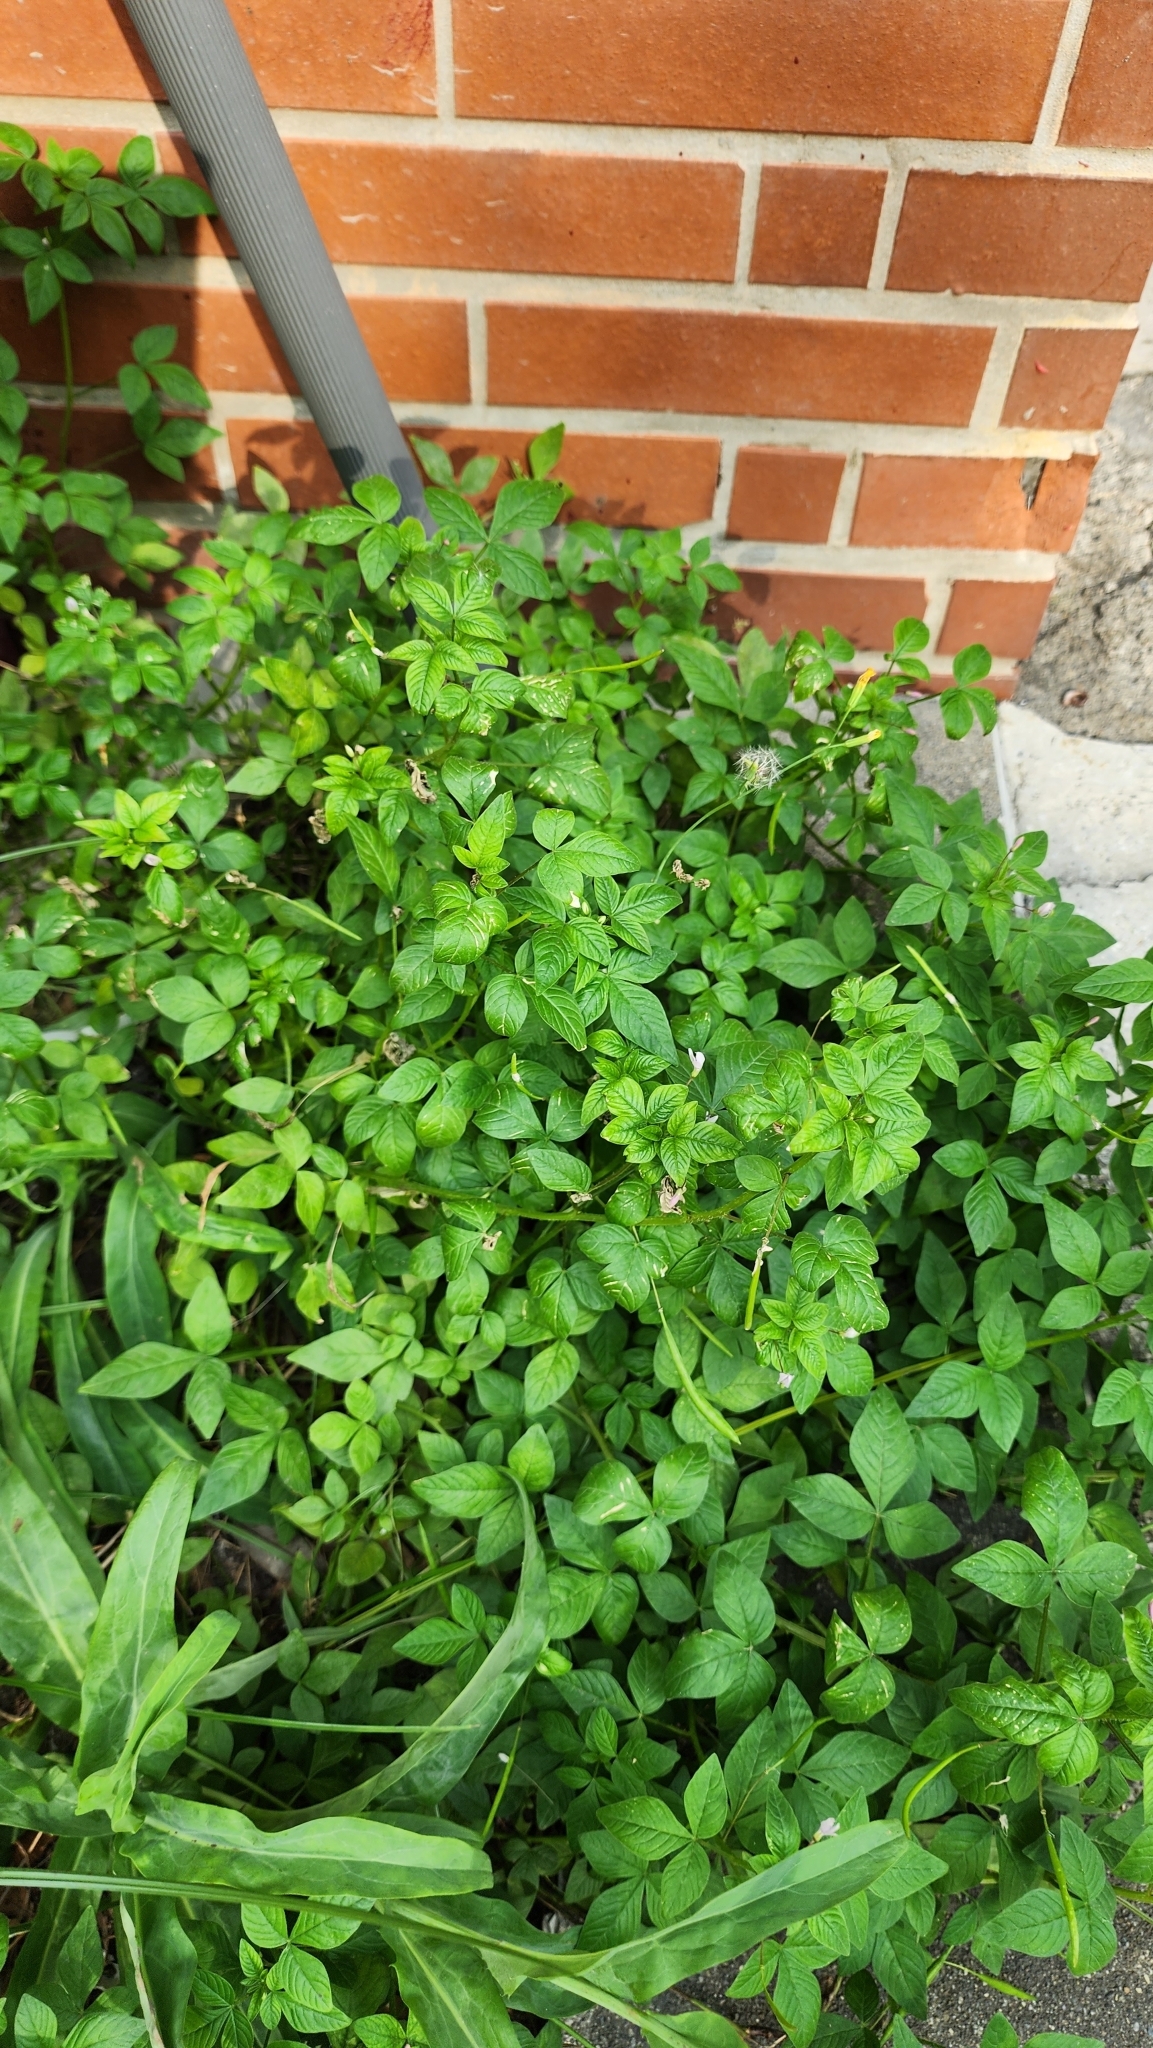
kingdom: Plantae
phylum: Tracheophyta
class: Magnoliopsida
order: Brassicales
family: Cleomaceae
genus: Sieruela
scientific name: Sieruela rutidosperma
